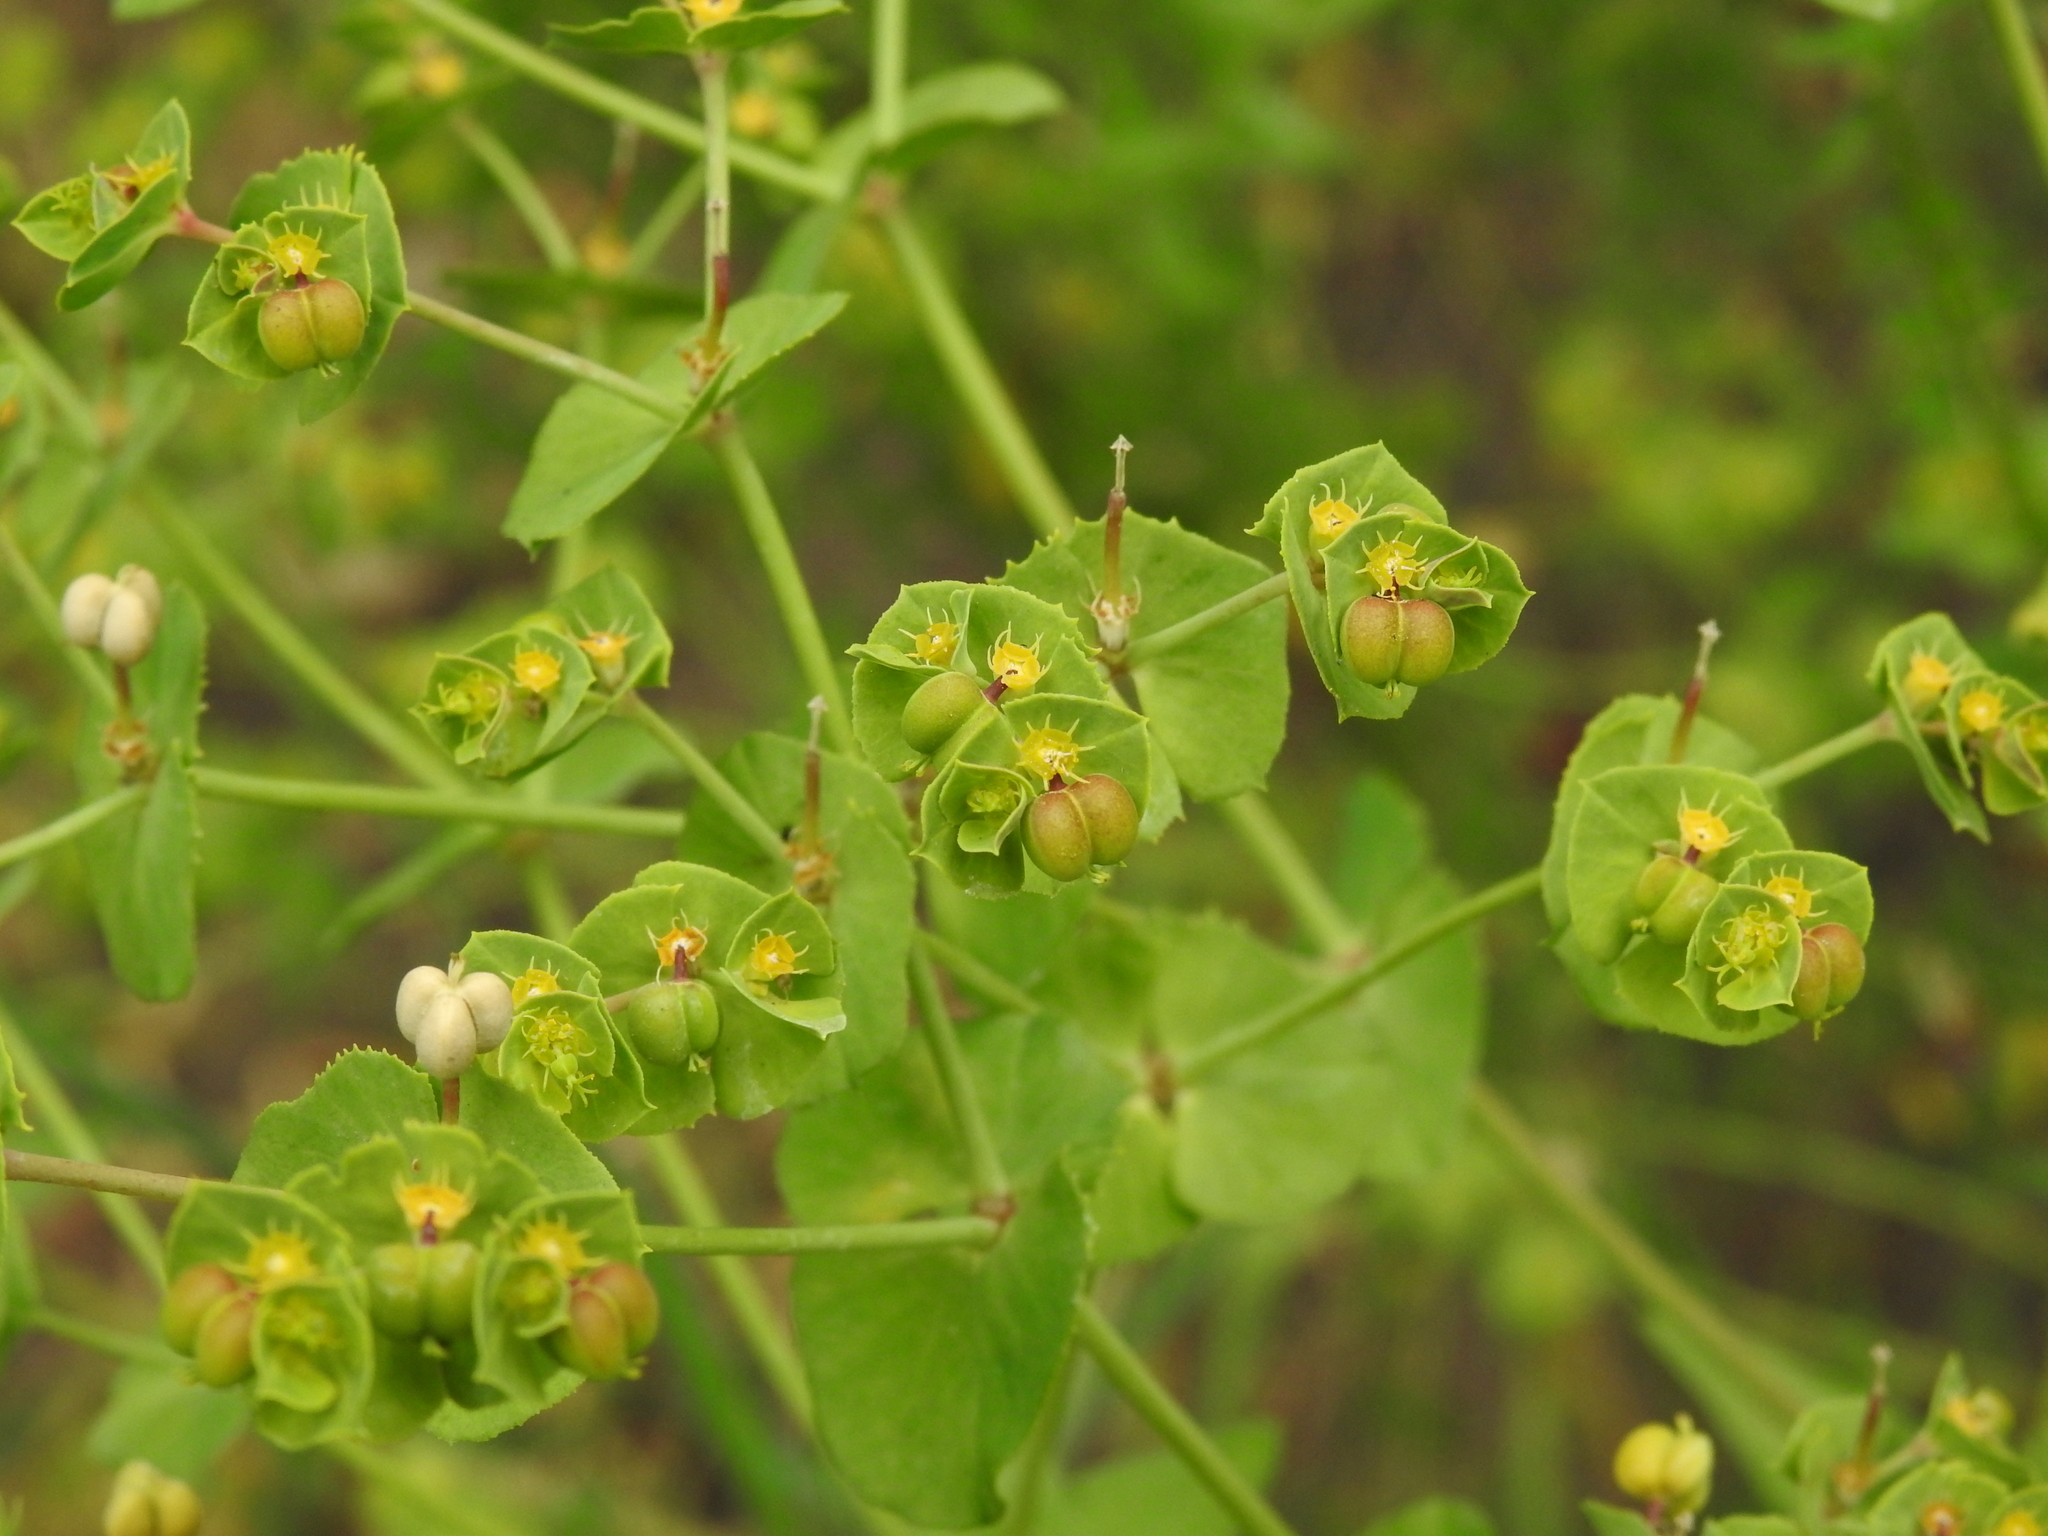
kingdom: Plantae
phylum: Tracheophyta
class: Magnoliopsida
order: Malpighiales
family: Euphorbiaceae
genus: Euphorbia
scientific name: Euphorbia terracina
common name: Geraldton carnation weed
